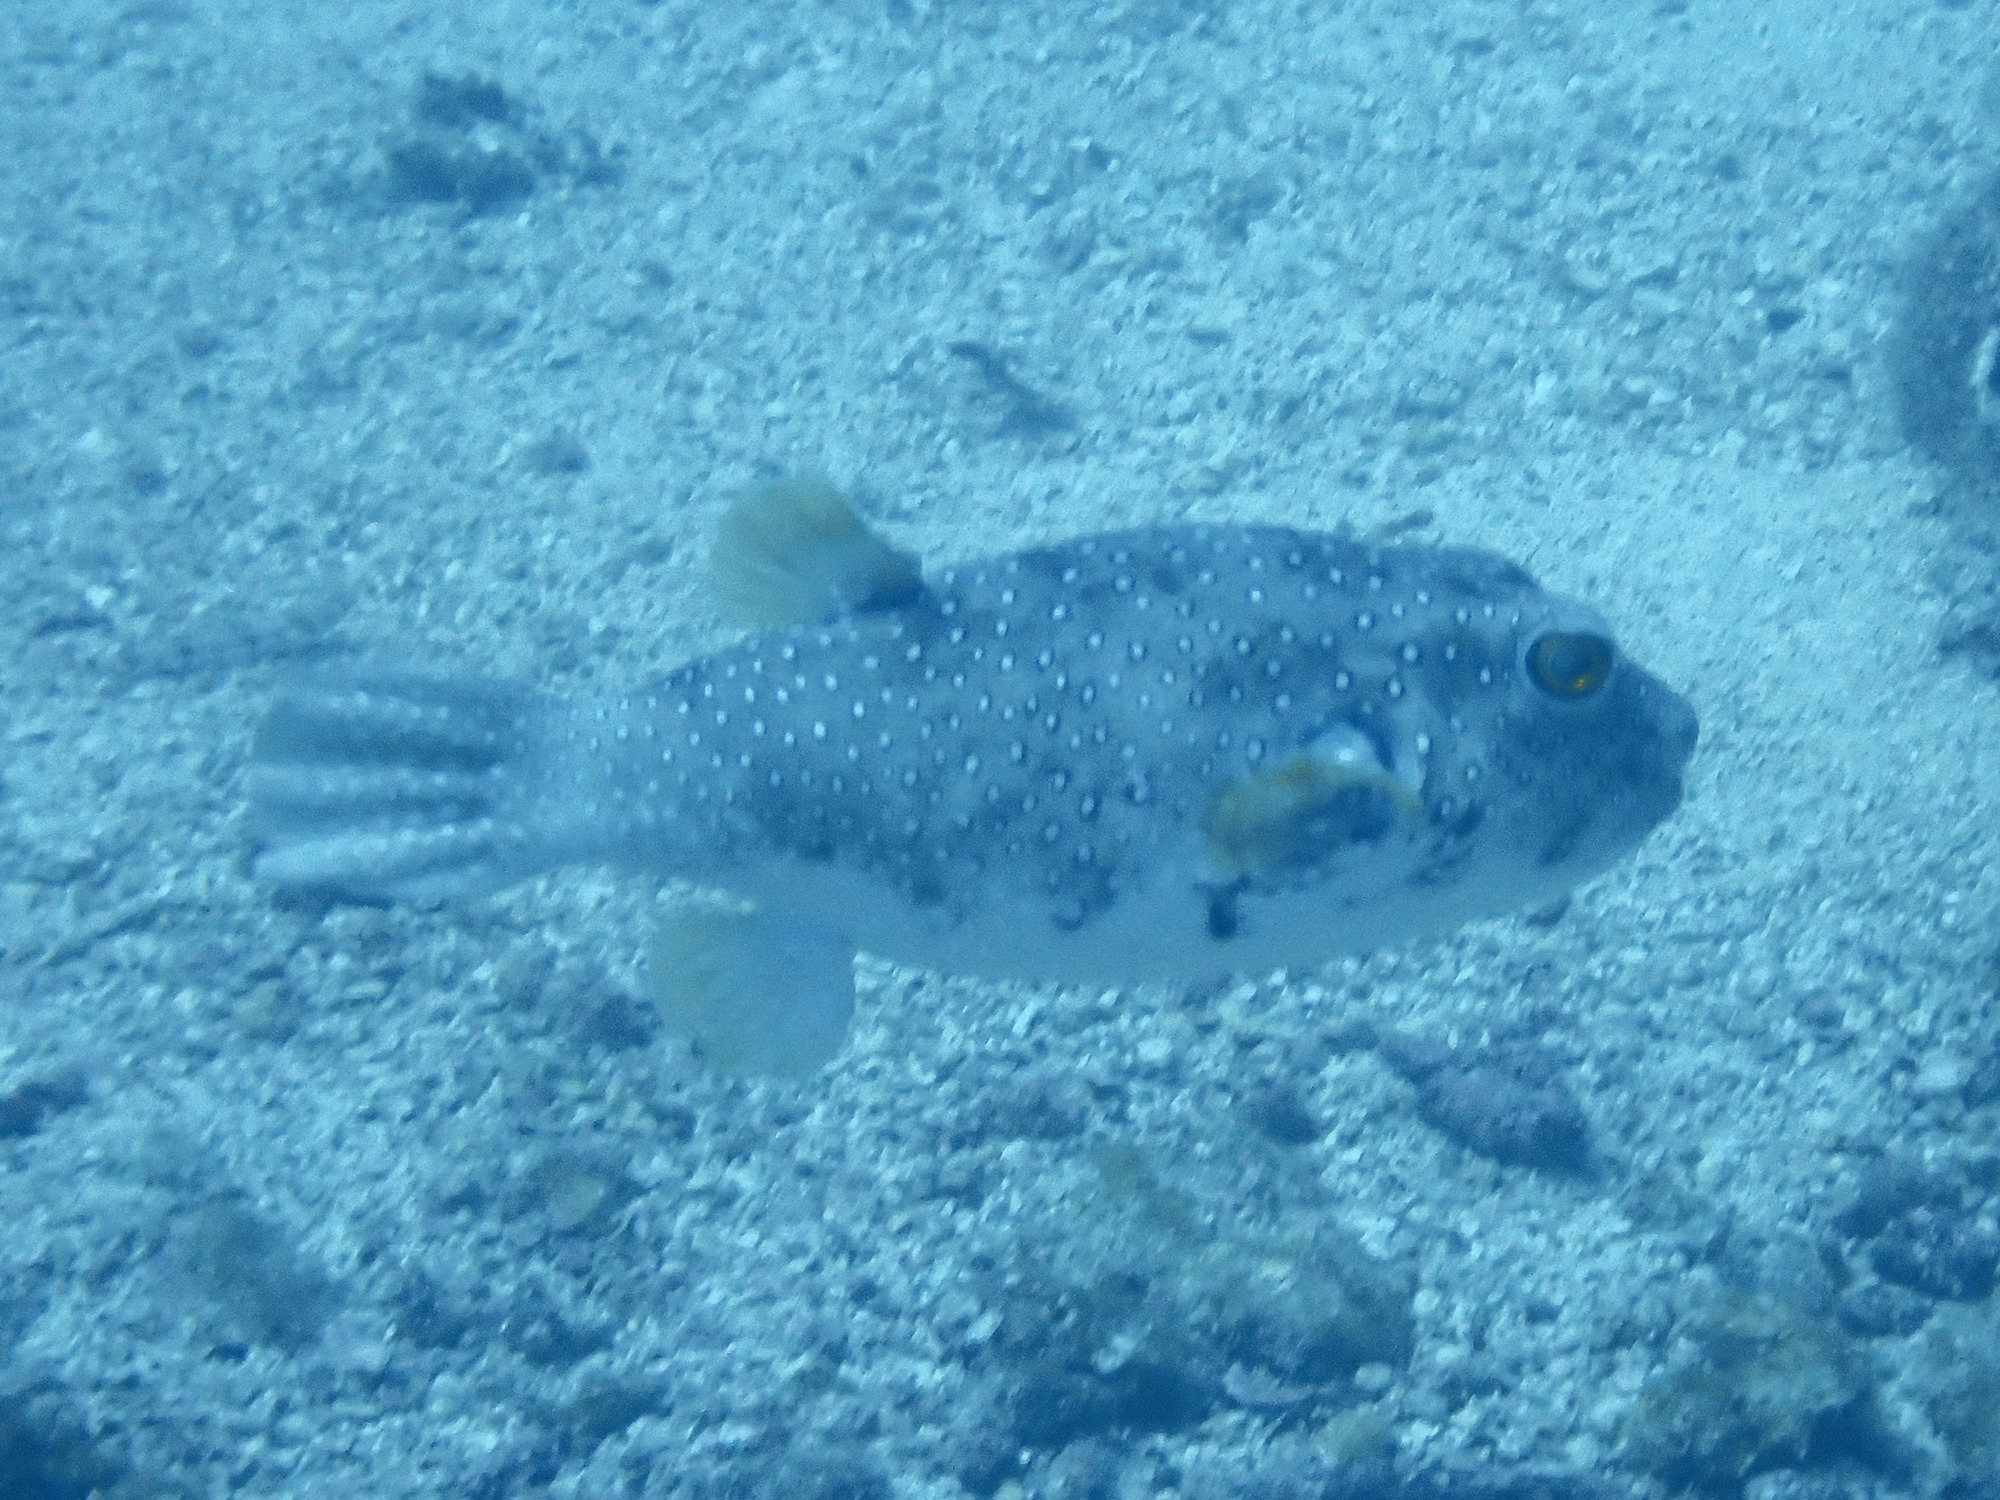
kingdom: Animalia
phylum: Chordata
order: Tetraodontiformes
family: Tetraodontidae
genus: Arothron
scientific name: Arothron hispidus
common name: Stripebelly puffer
